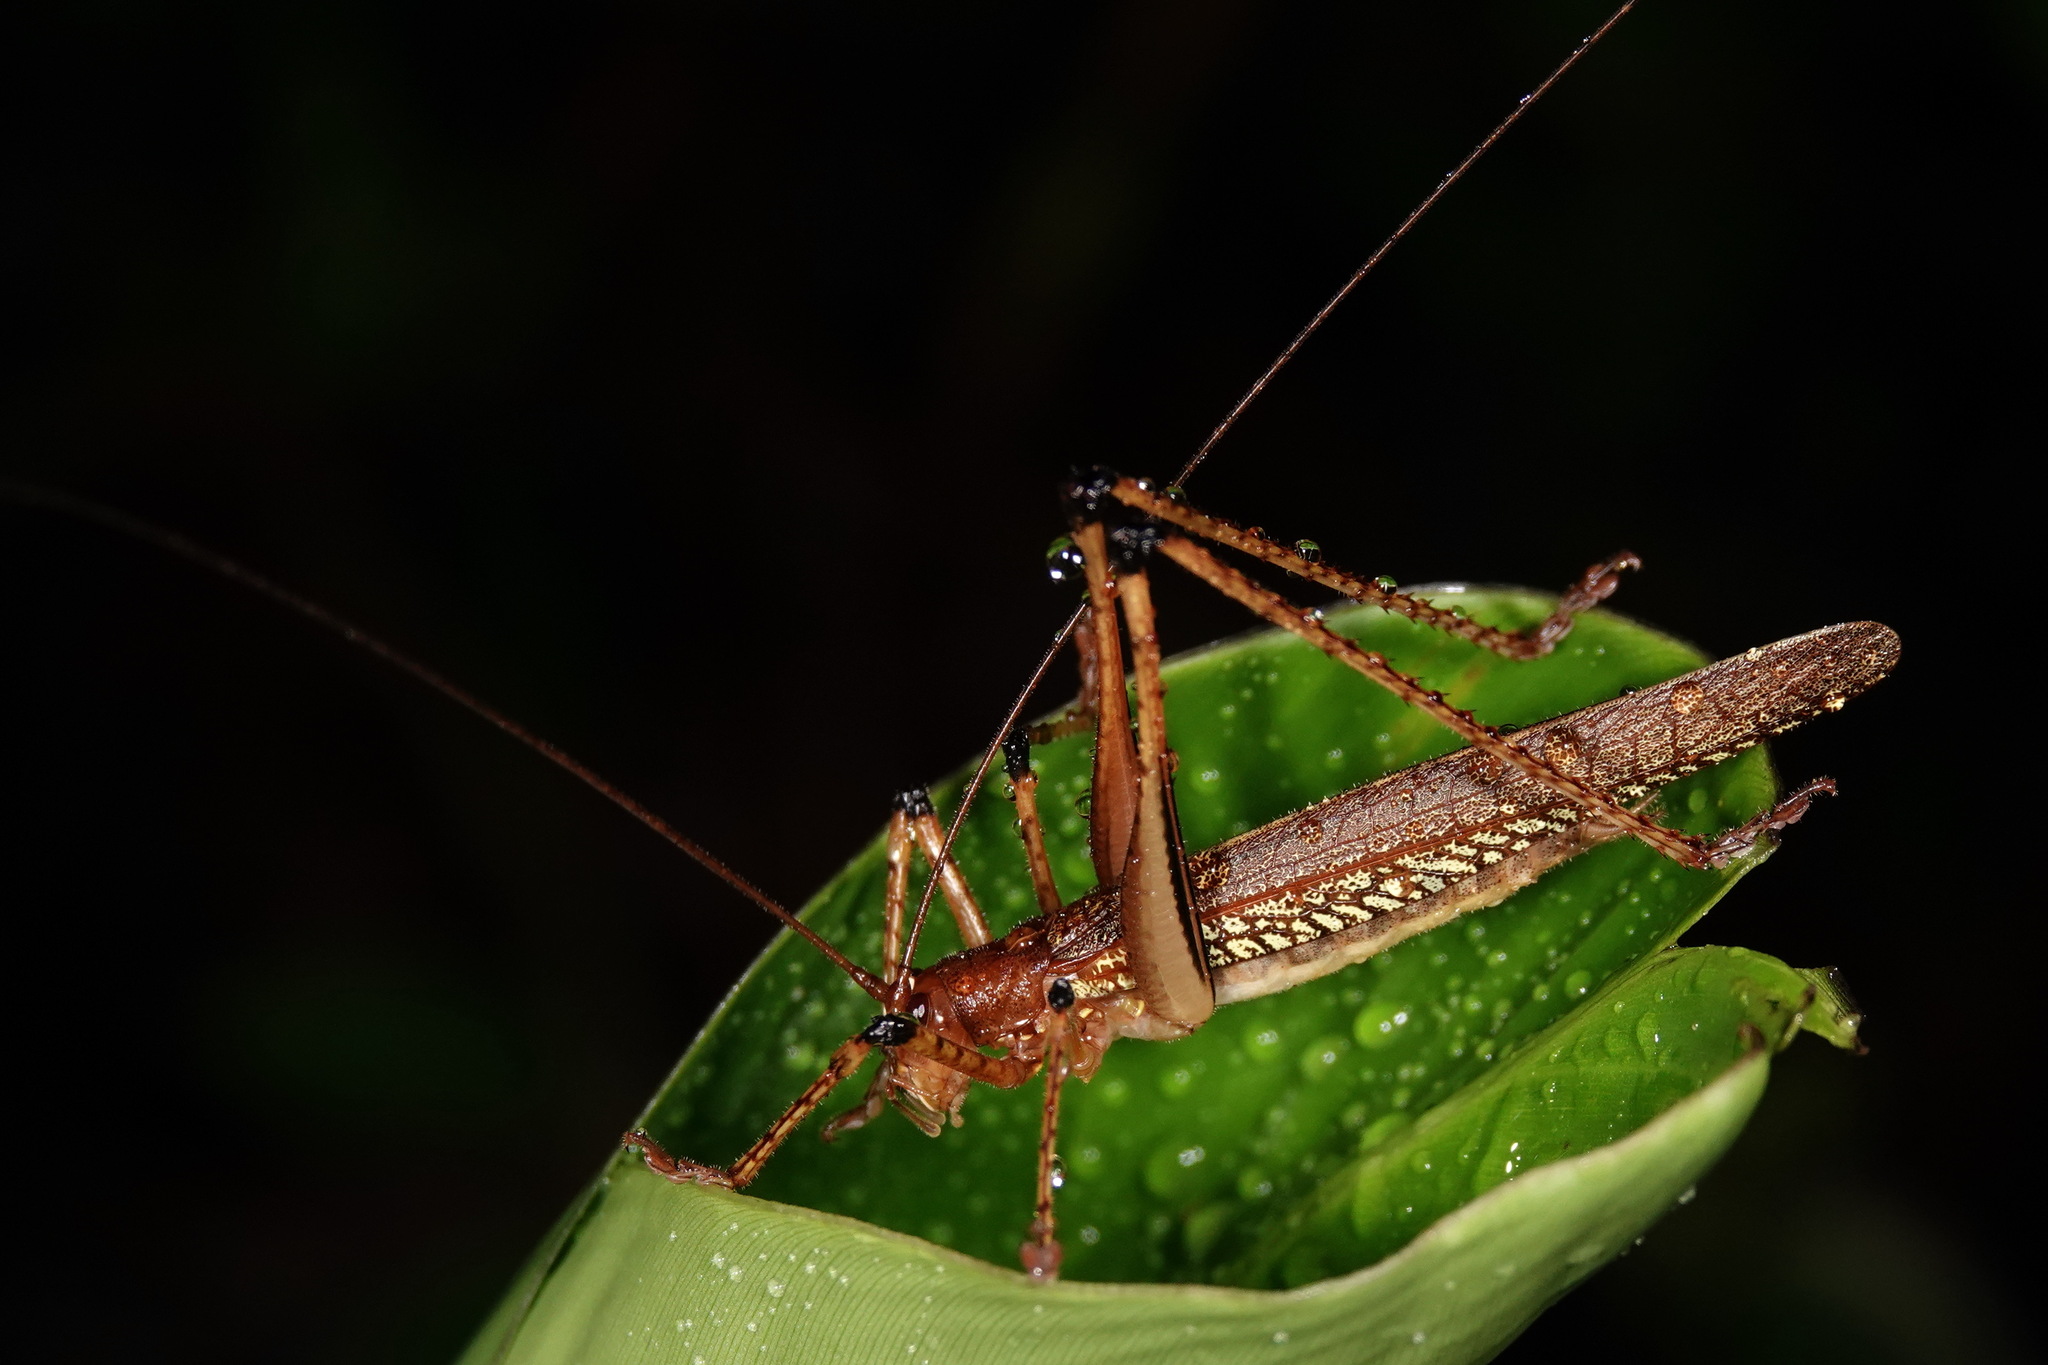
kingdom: Animalia
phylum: Arthropoda
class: Insecta
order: Orthoptera
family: Tettigoniidae
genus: Ischnomela
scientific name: Ischnomela gracilis
